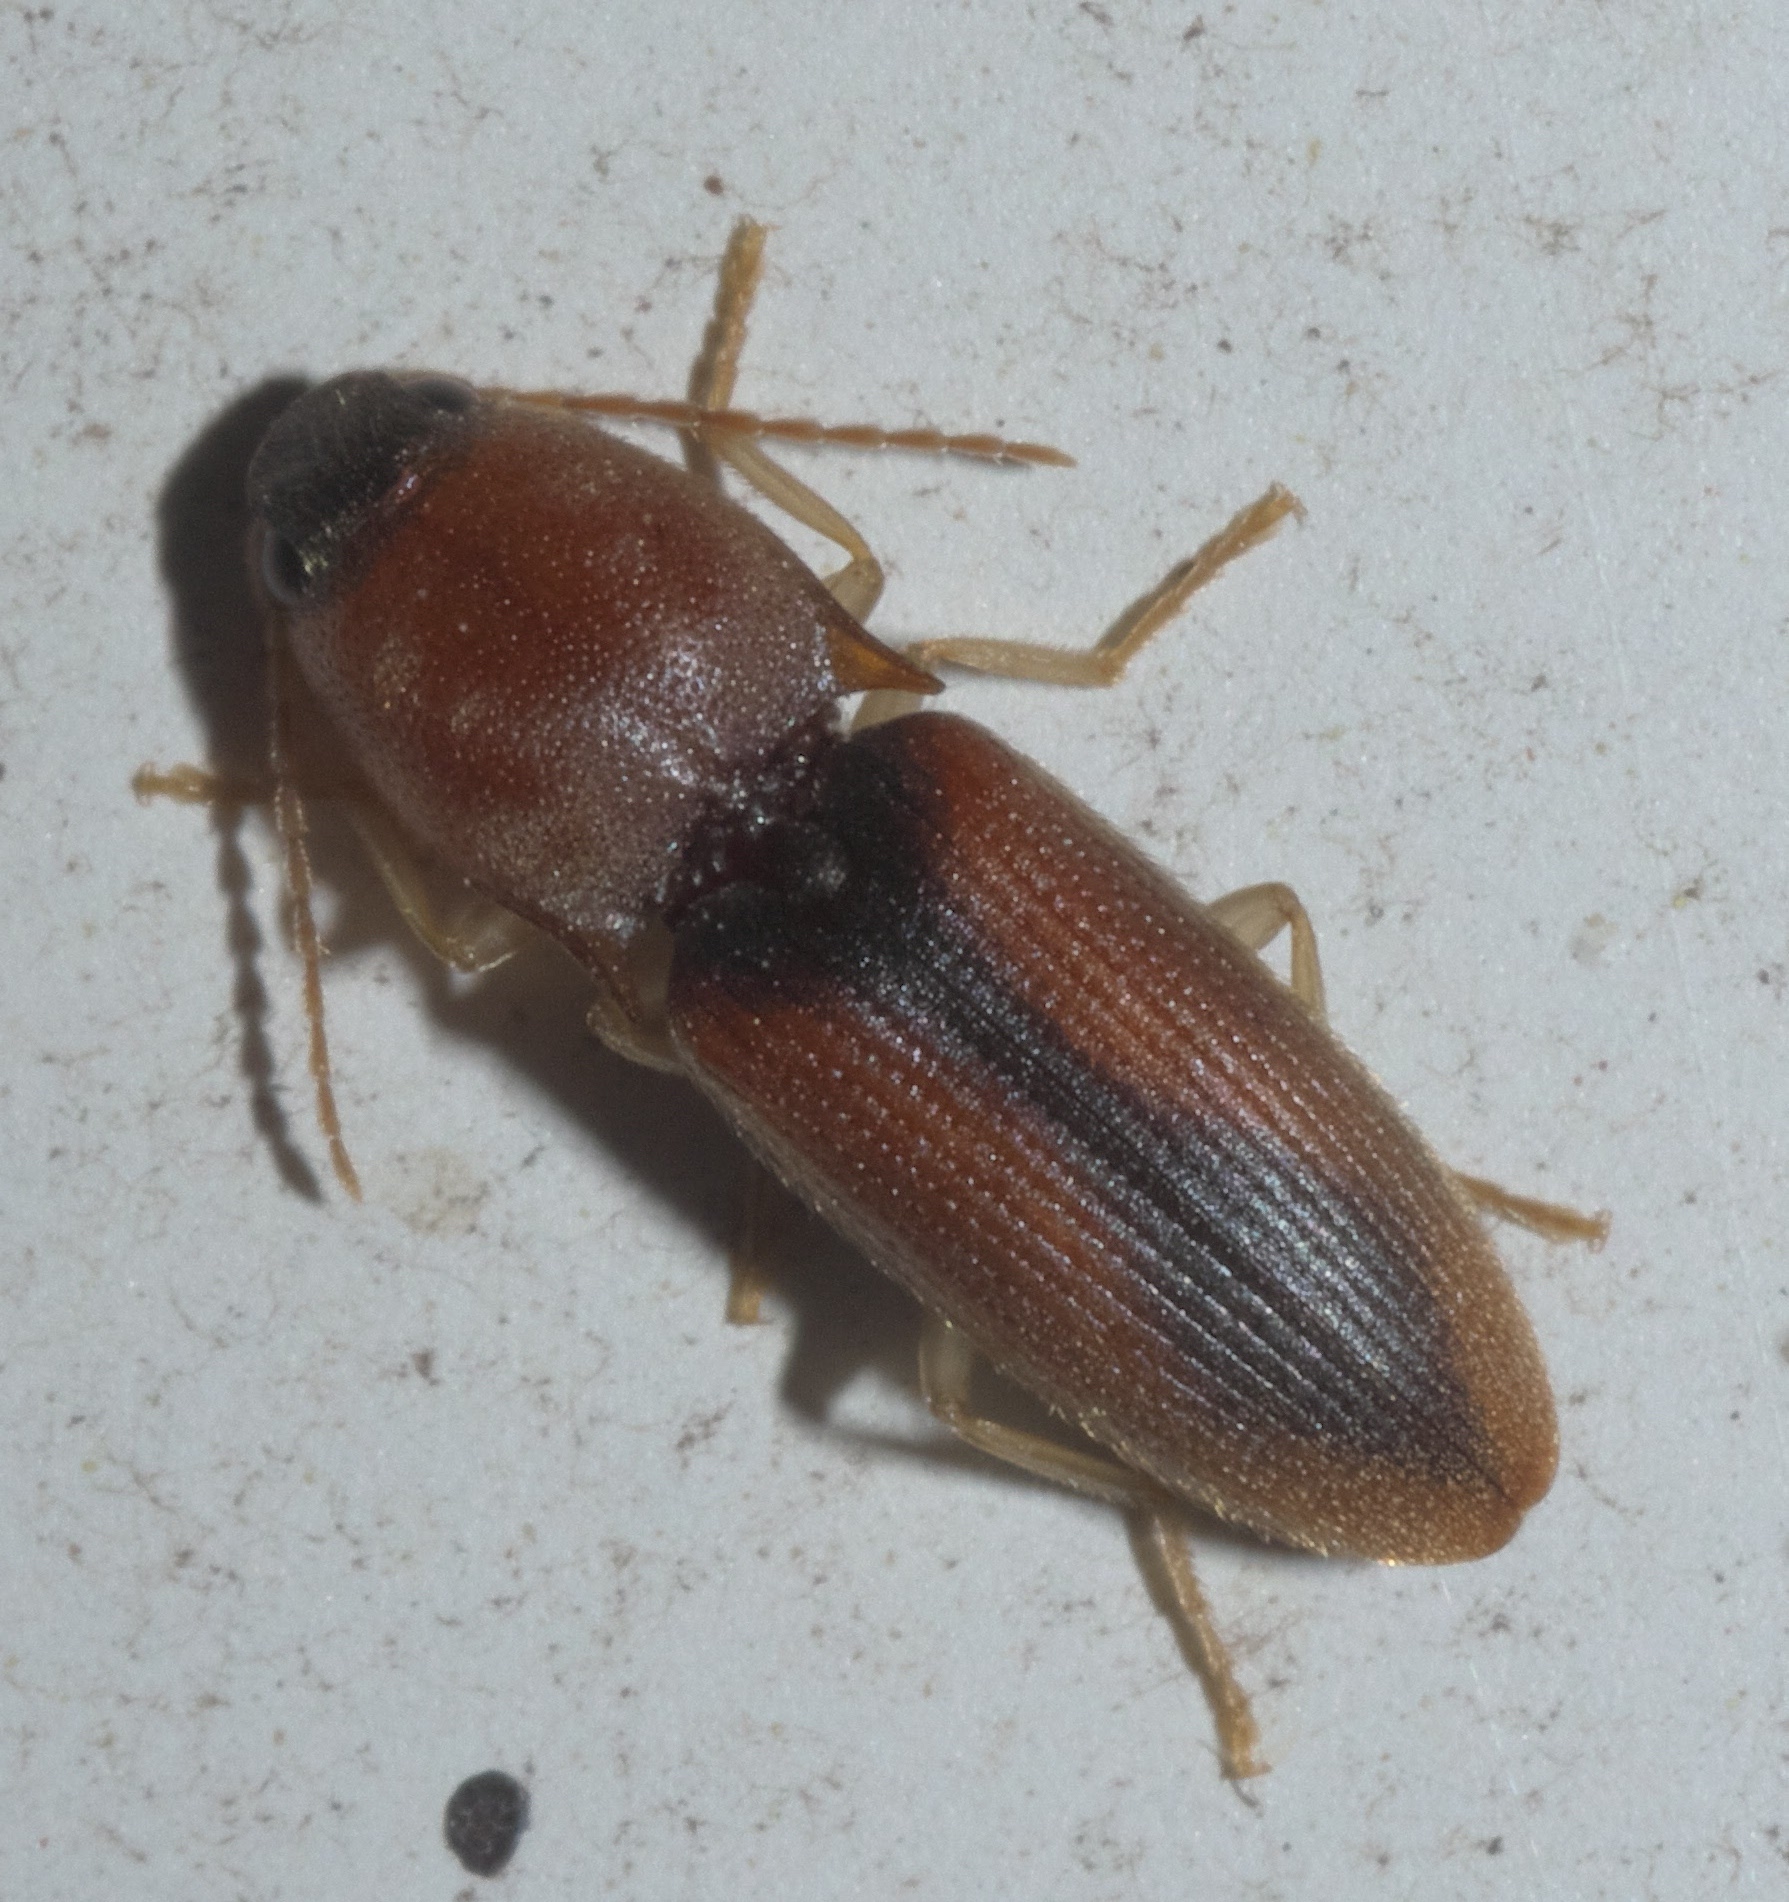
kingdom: Animalia
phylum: Arthropoda
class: Insecta
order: Coleoptera
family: Elateridae
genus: Monocrepidius
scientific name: Monocrepidius
